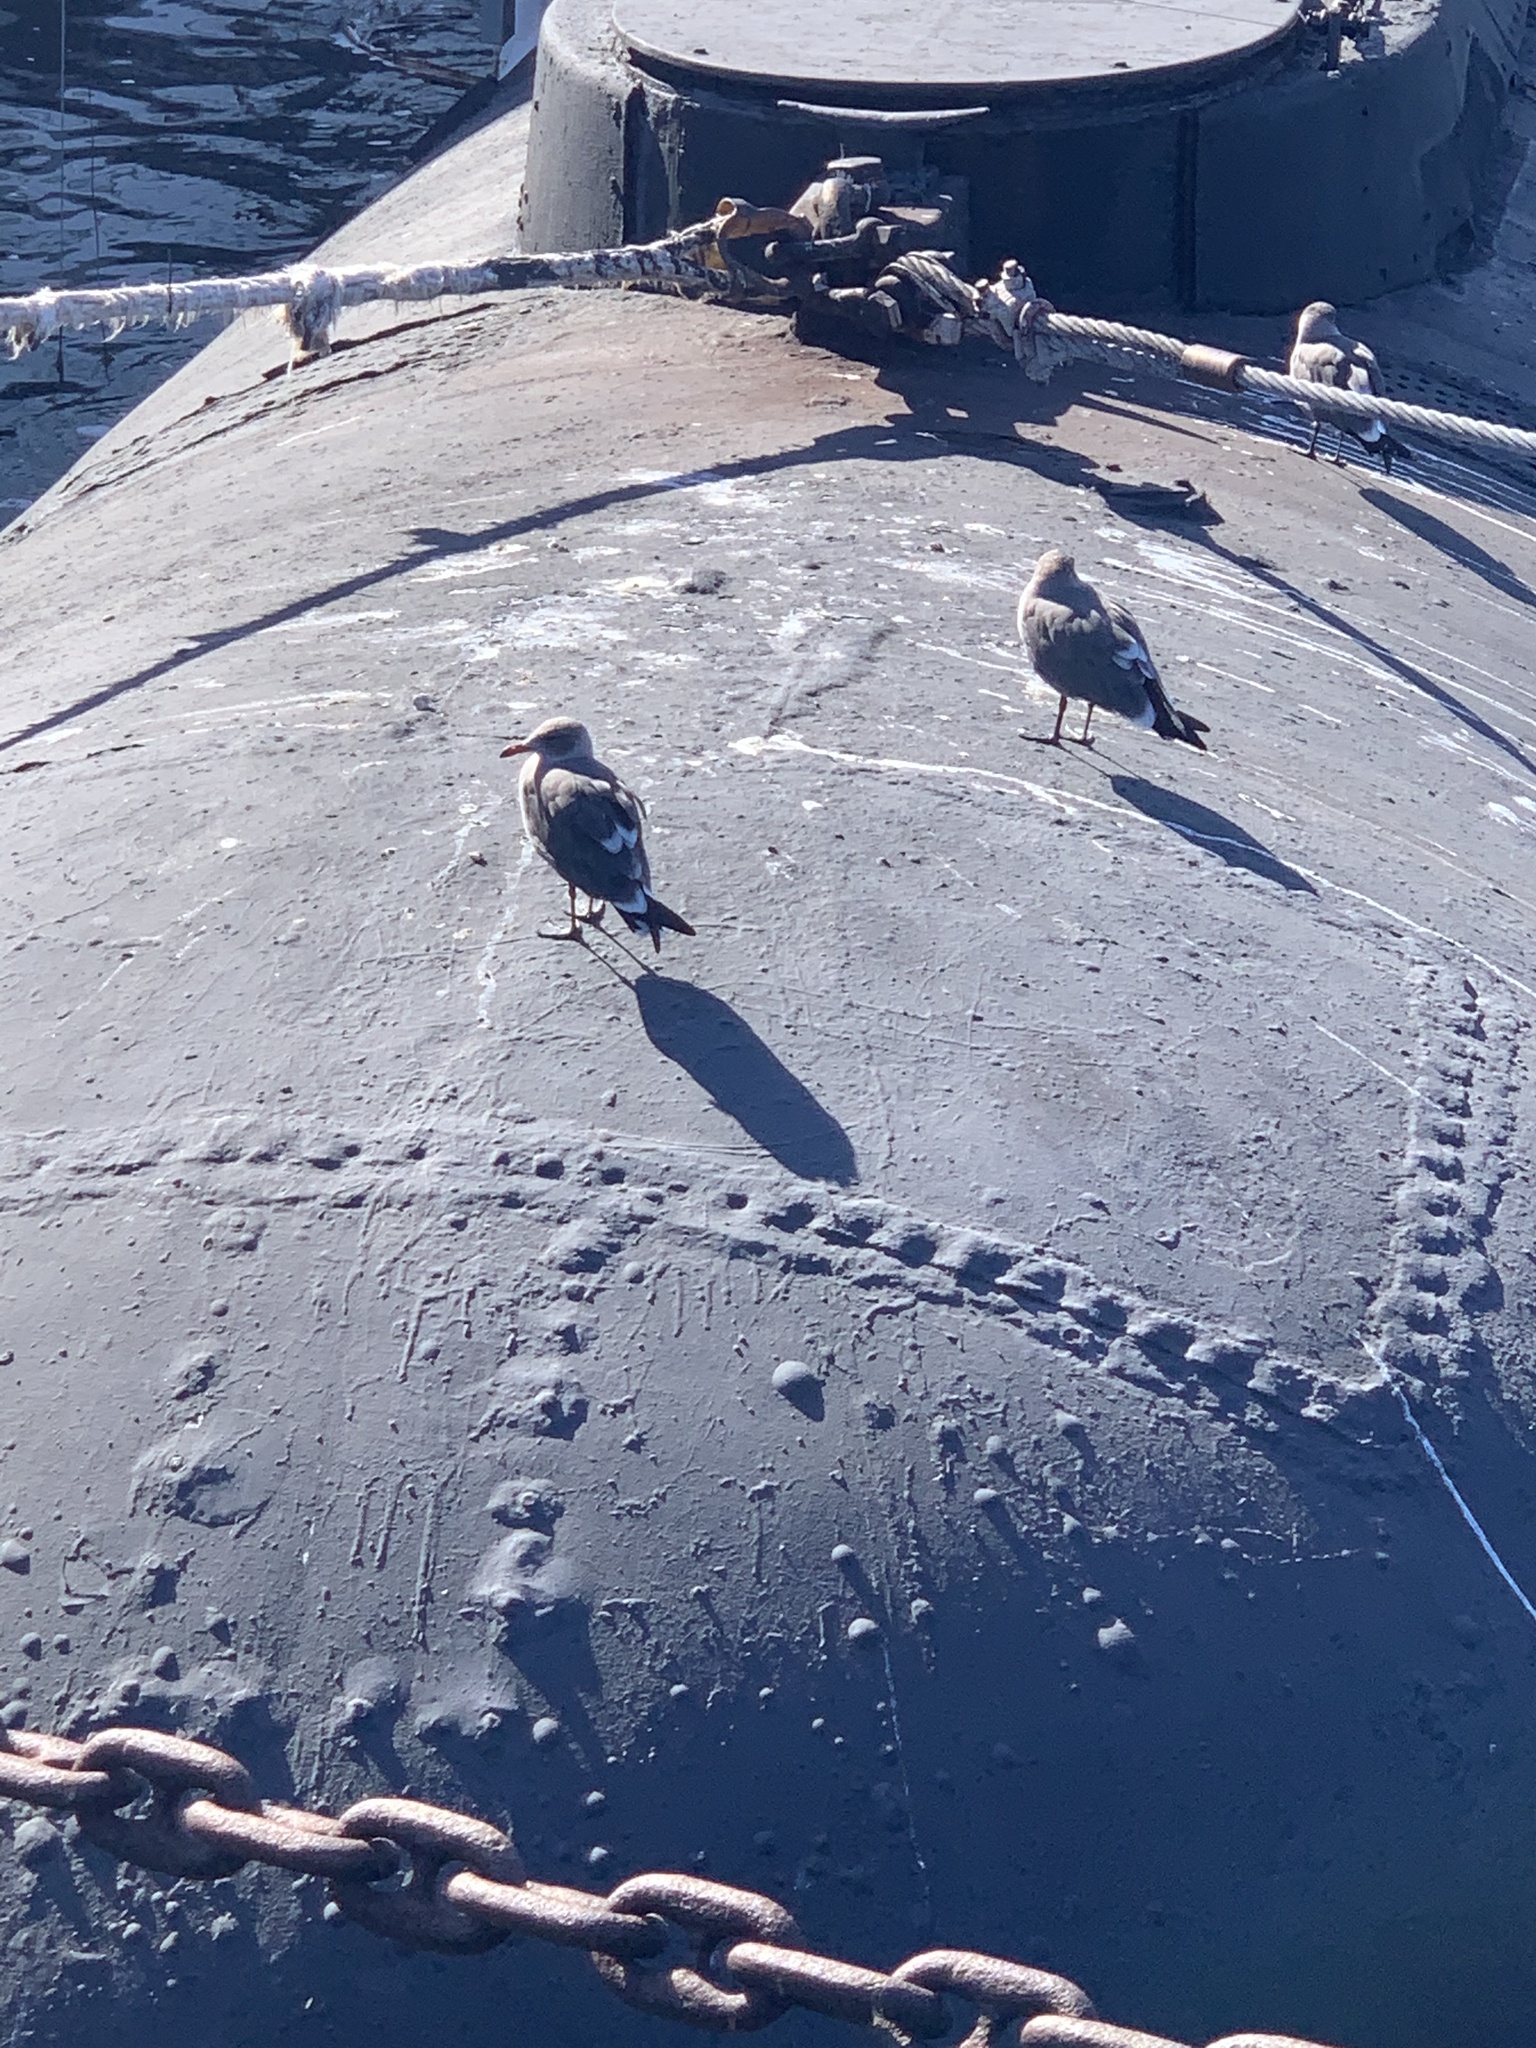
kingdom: Animalia
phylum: Chordata
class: Aves
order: Charadriiformes
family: Laridae
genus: Larus
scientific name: Larus heermanni
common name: Heermann's gull
